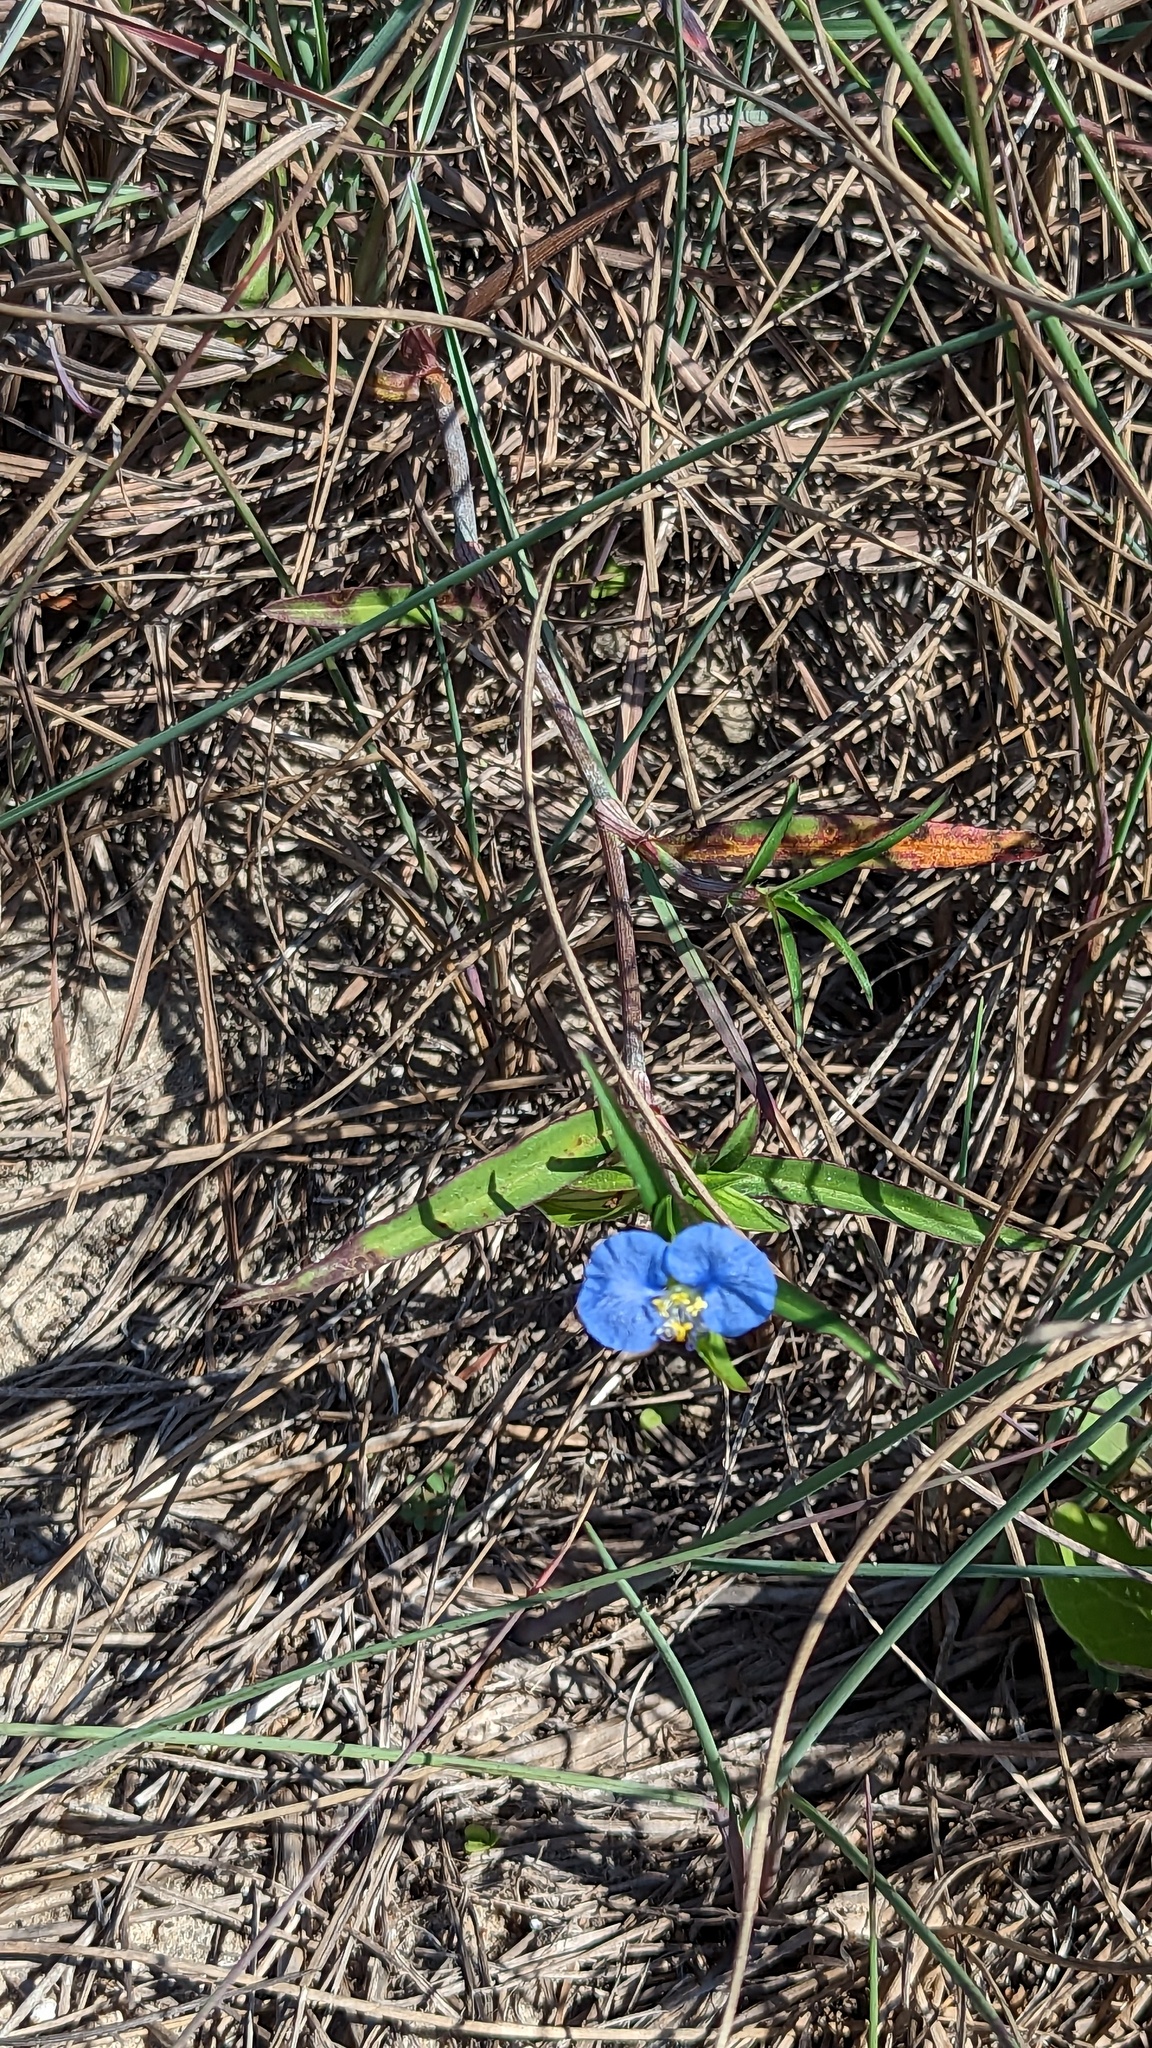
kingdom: Plantae
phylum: Tracheophyta
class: Liliopsida
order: Commelinales
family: Commelinaceae
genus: Commelina
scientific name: Commelina erecta
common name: Blousel blommetjie
